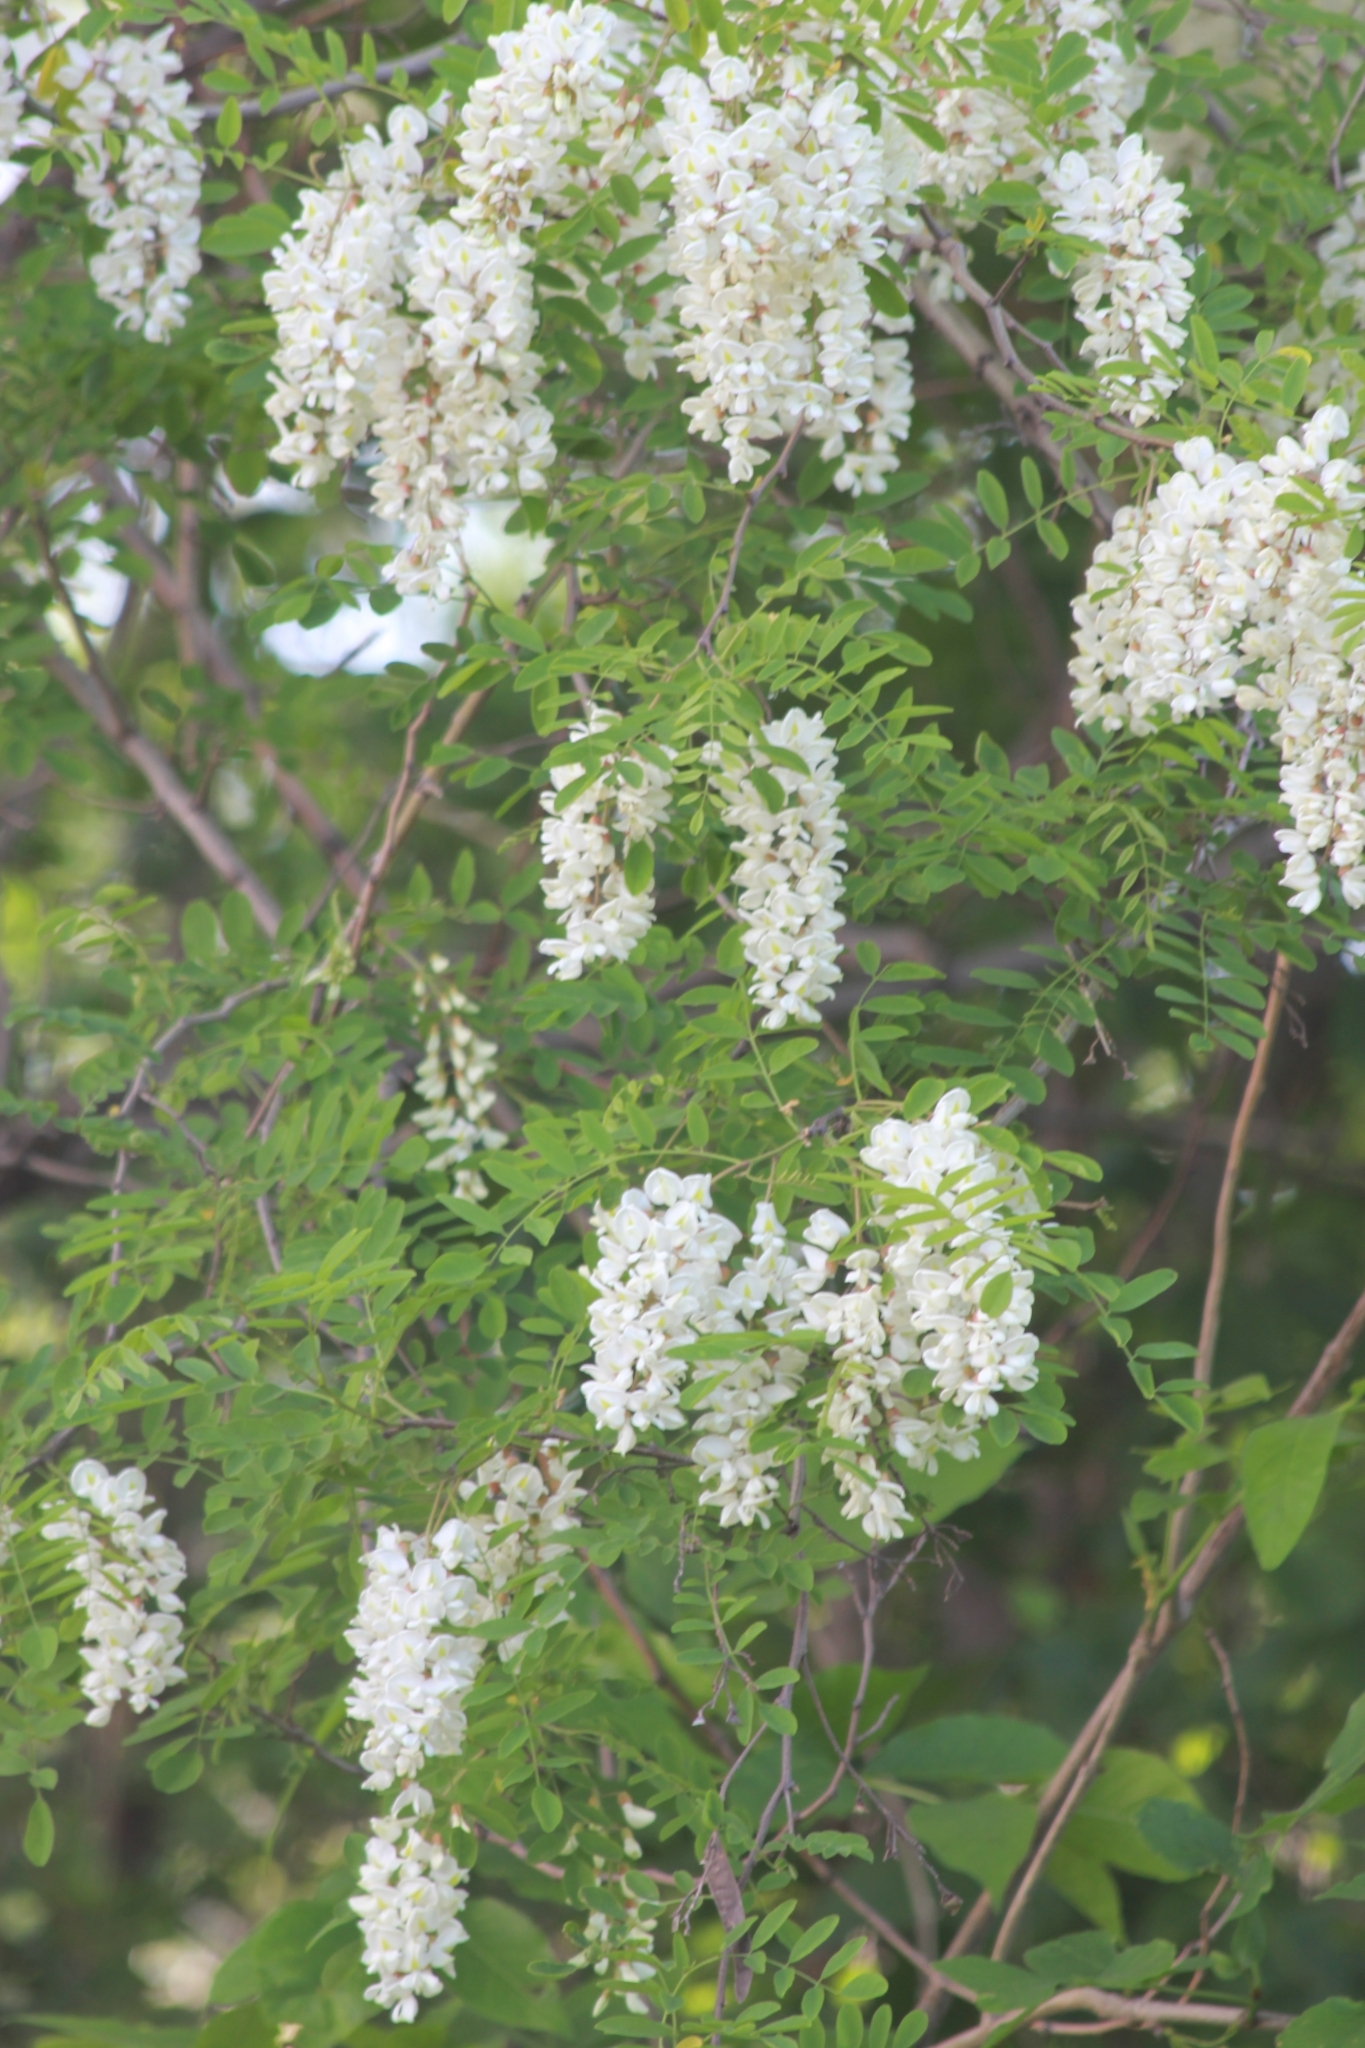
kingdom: Plantae
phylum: Tracheophyta
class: Magnoliopsida
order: Fabales
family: Fabaceae
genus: Robinia
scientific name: Robinia pseudoacacia
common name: Black locust
